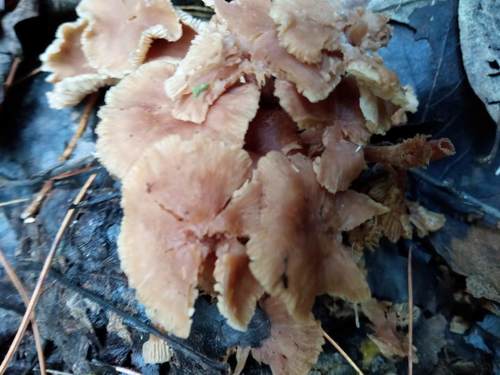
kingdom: Fungi
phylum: Basidiomycota
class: Agaricomycetes
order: Agaricales
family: Omphalotaceae
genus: Gymnopus
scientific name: Gymnopus
